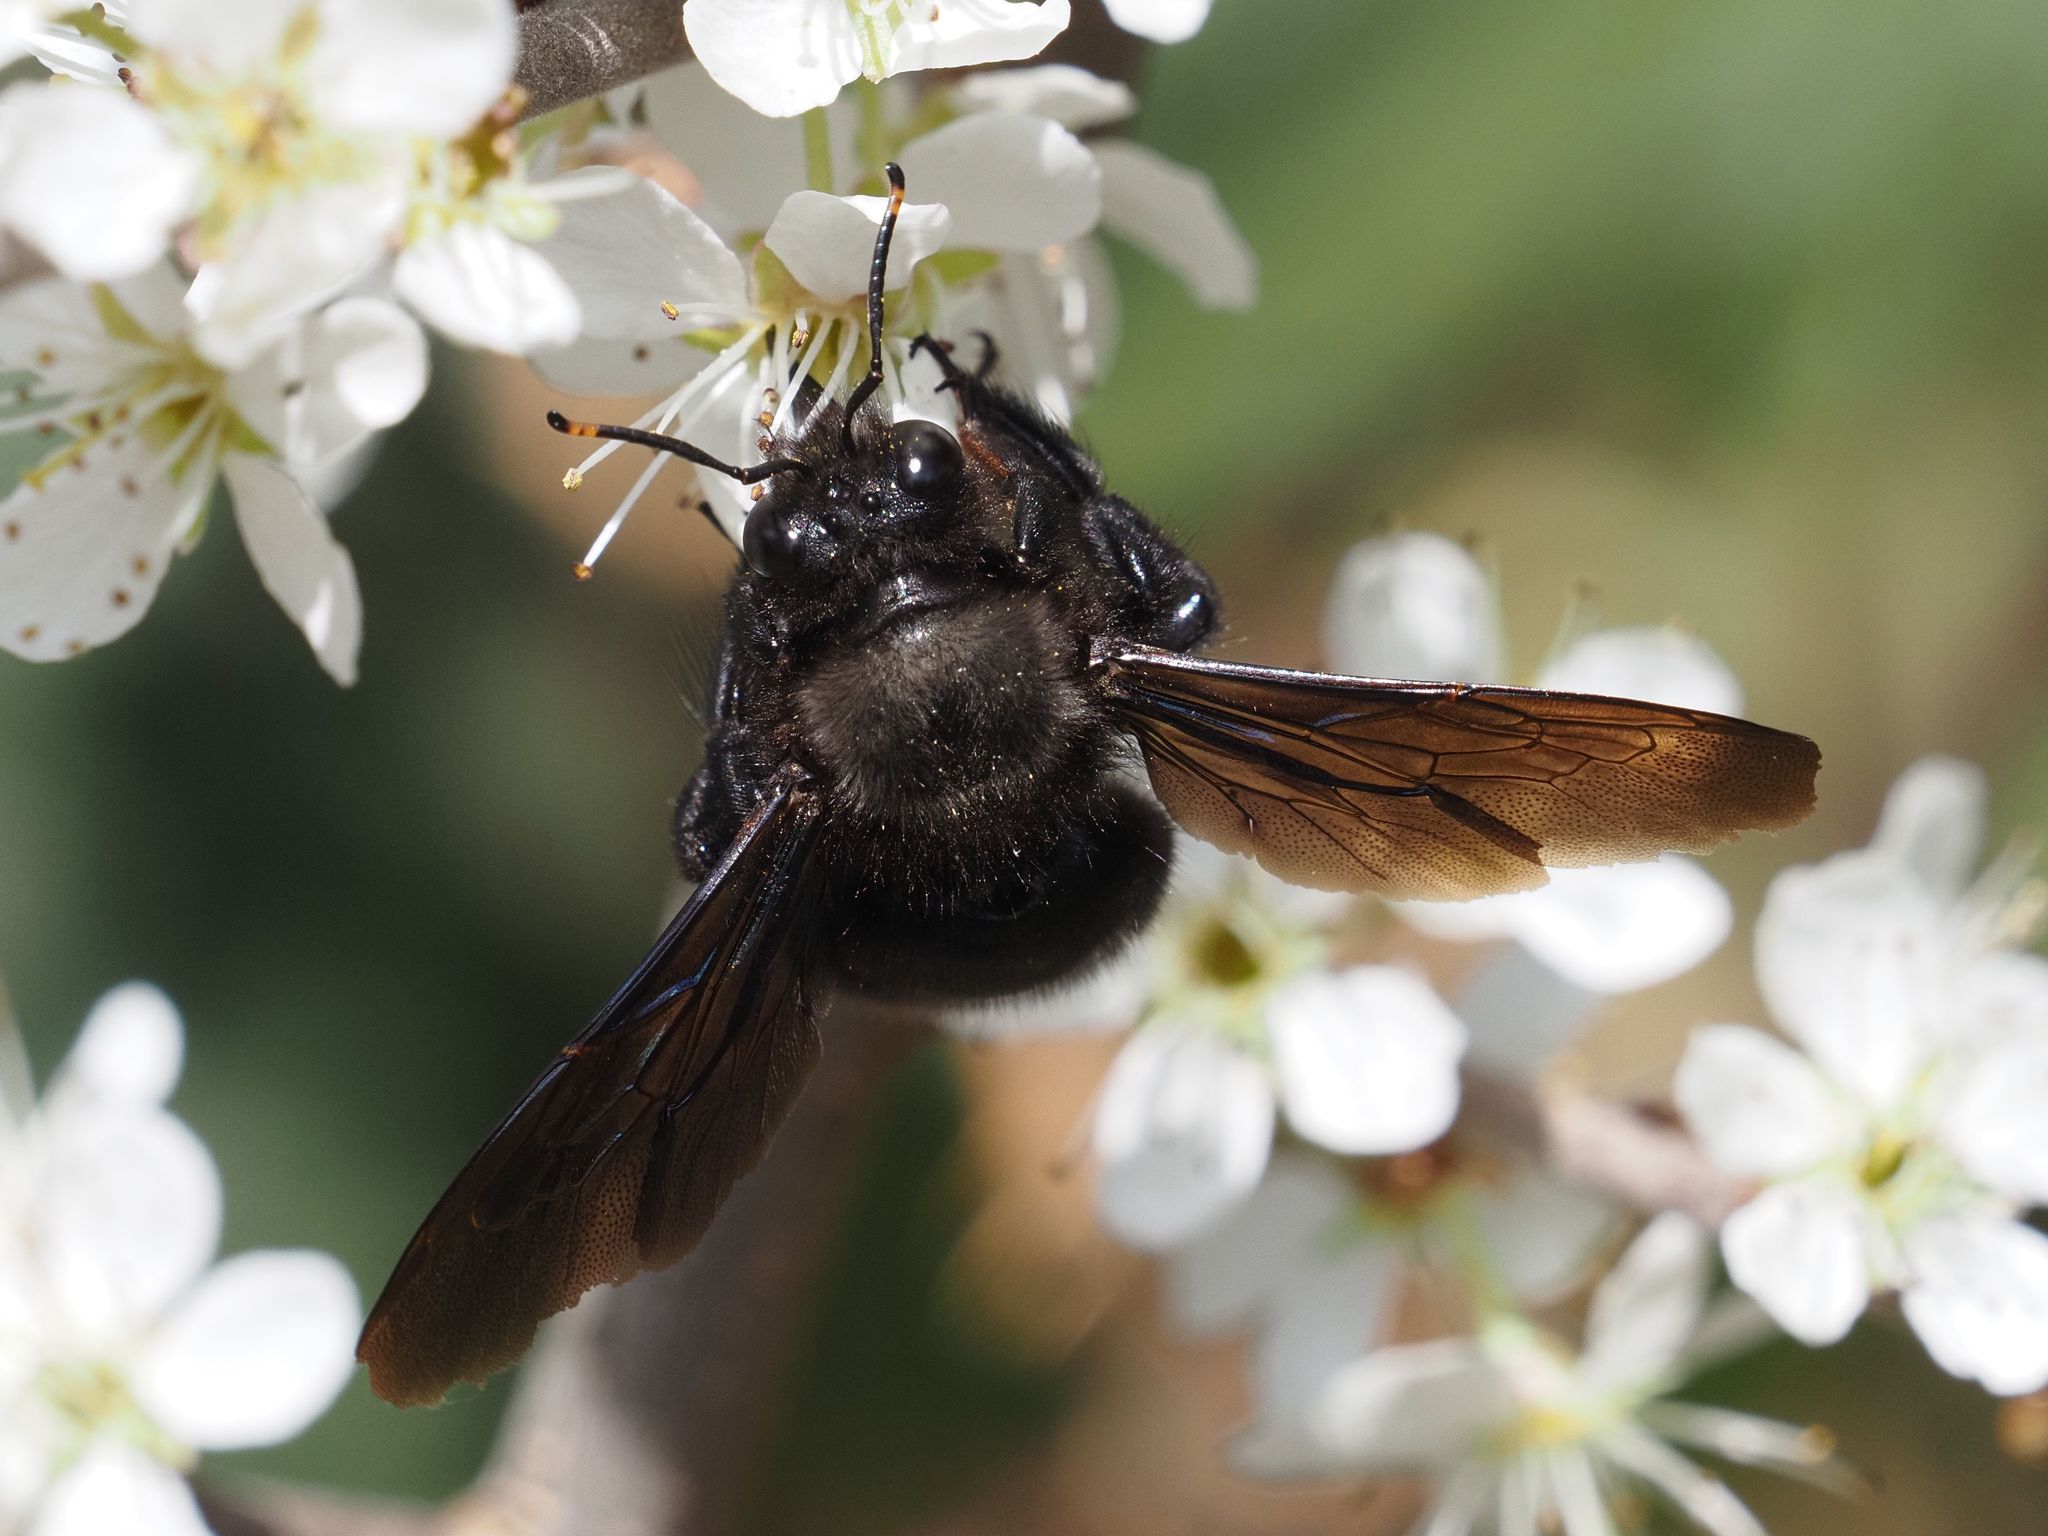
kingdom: Animalia
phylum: Arthropoda
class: Insecta
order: Hymenoptera
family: Apidae
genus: Xylocopa
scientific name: Xylocopa violacea
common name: Violet carpenter bee
